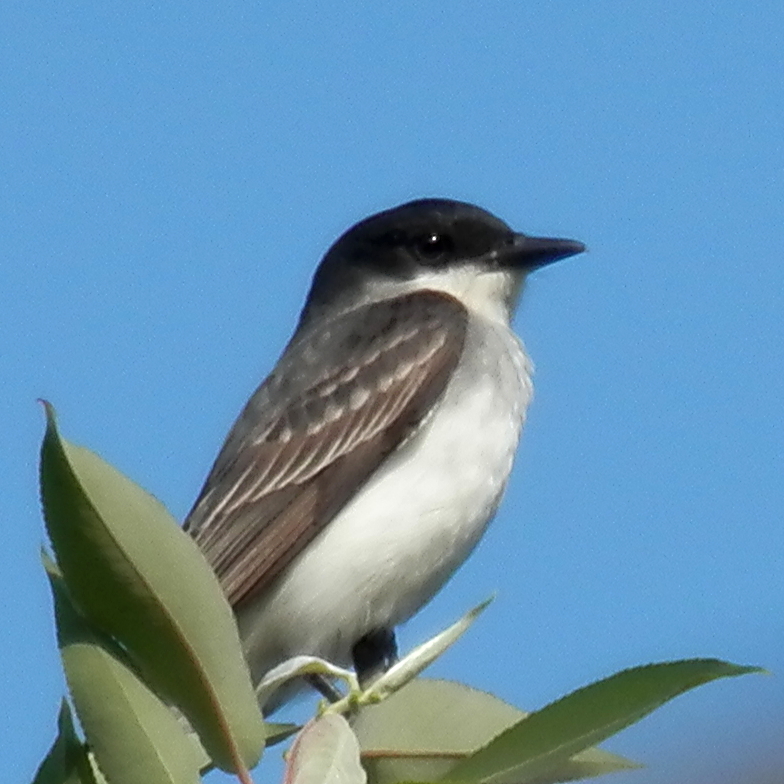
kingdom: Animalia
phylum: Chordata
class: Aves
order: Passeriformes
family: Tyrannidae
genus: Tyrannus
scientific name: Tyrannus tyrannus
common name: Eastern kingbird
